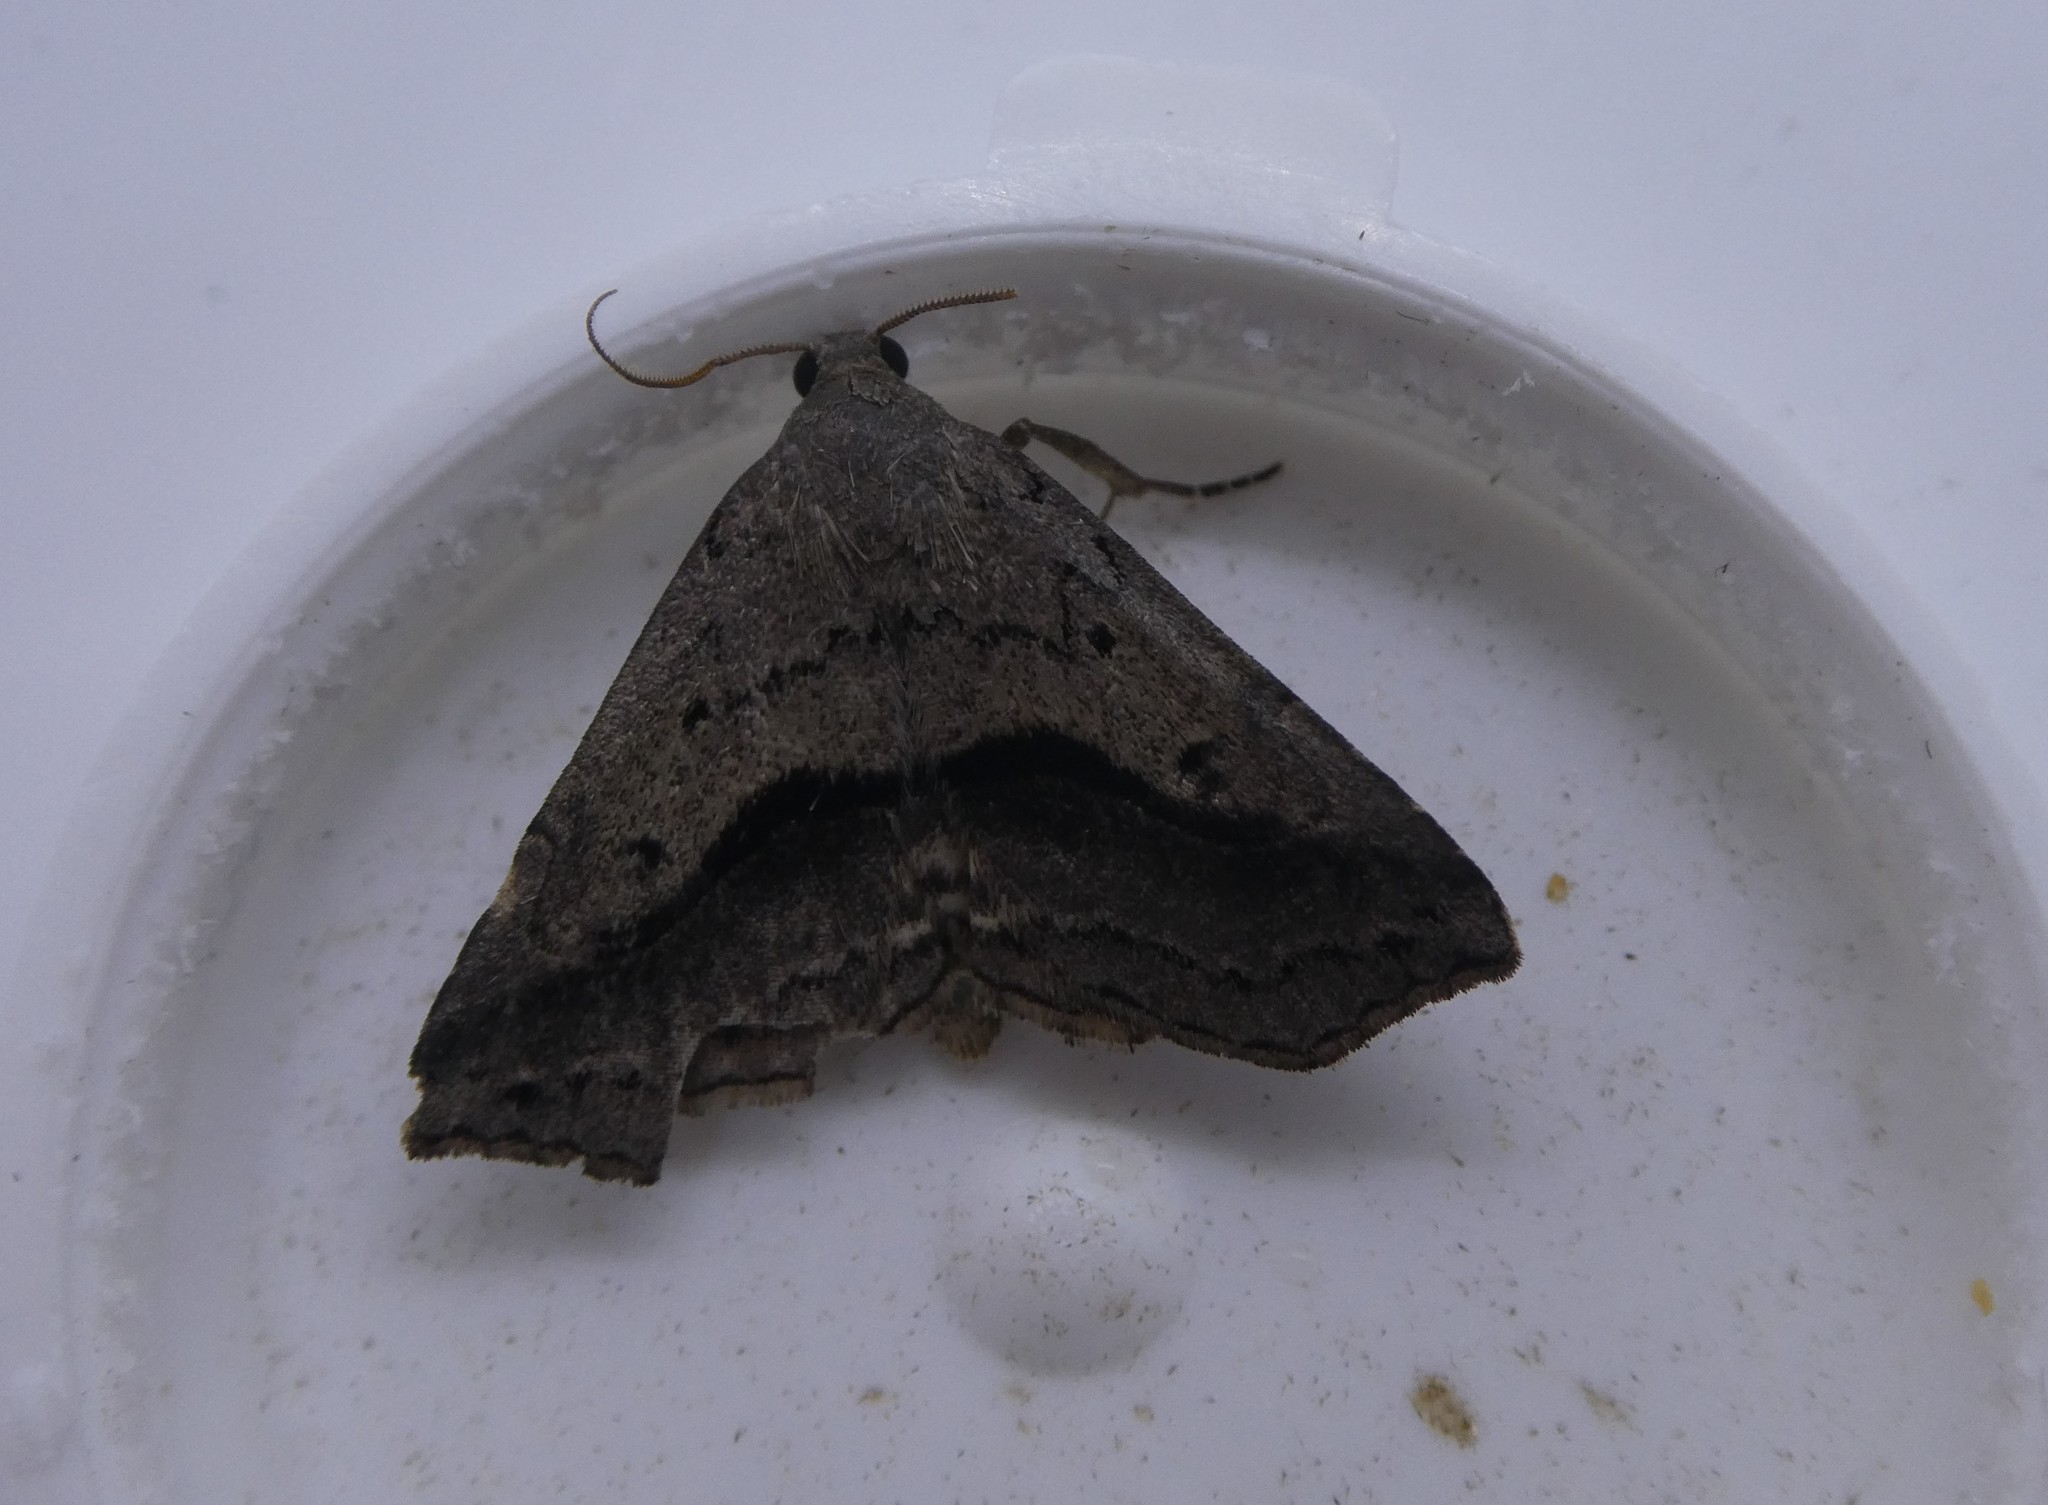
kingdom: Animalia
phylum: Arthropoda
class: Insecta
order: Lepidoptera
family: Erebidae
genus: Spargaloma
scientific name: Spargaloma perditalis
